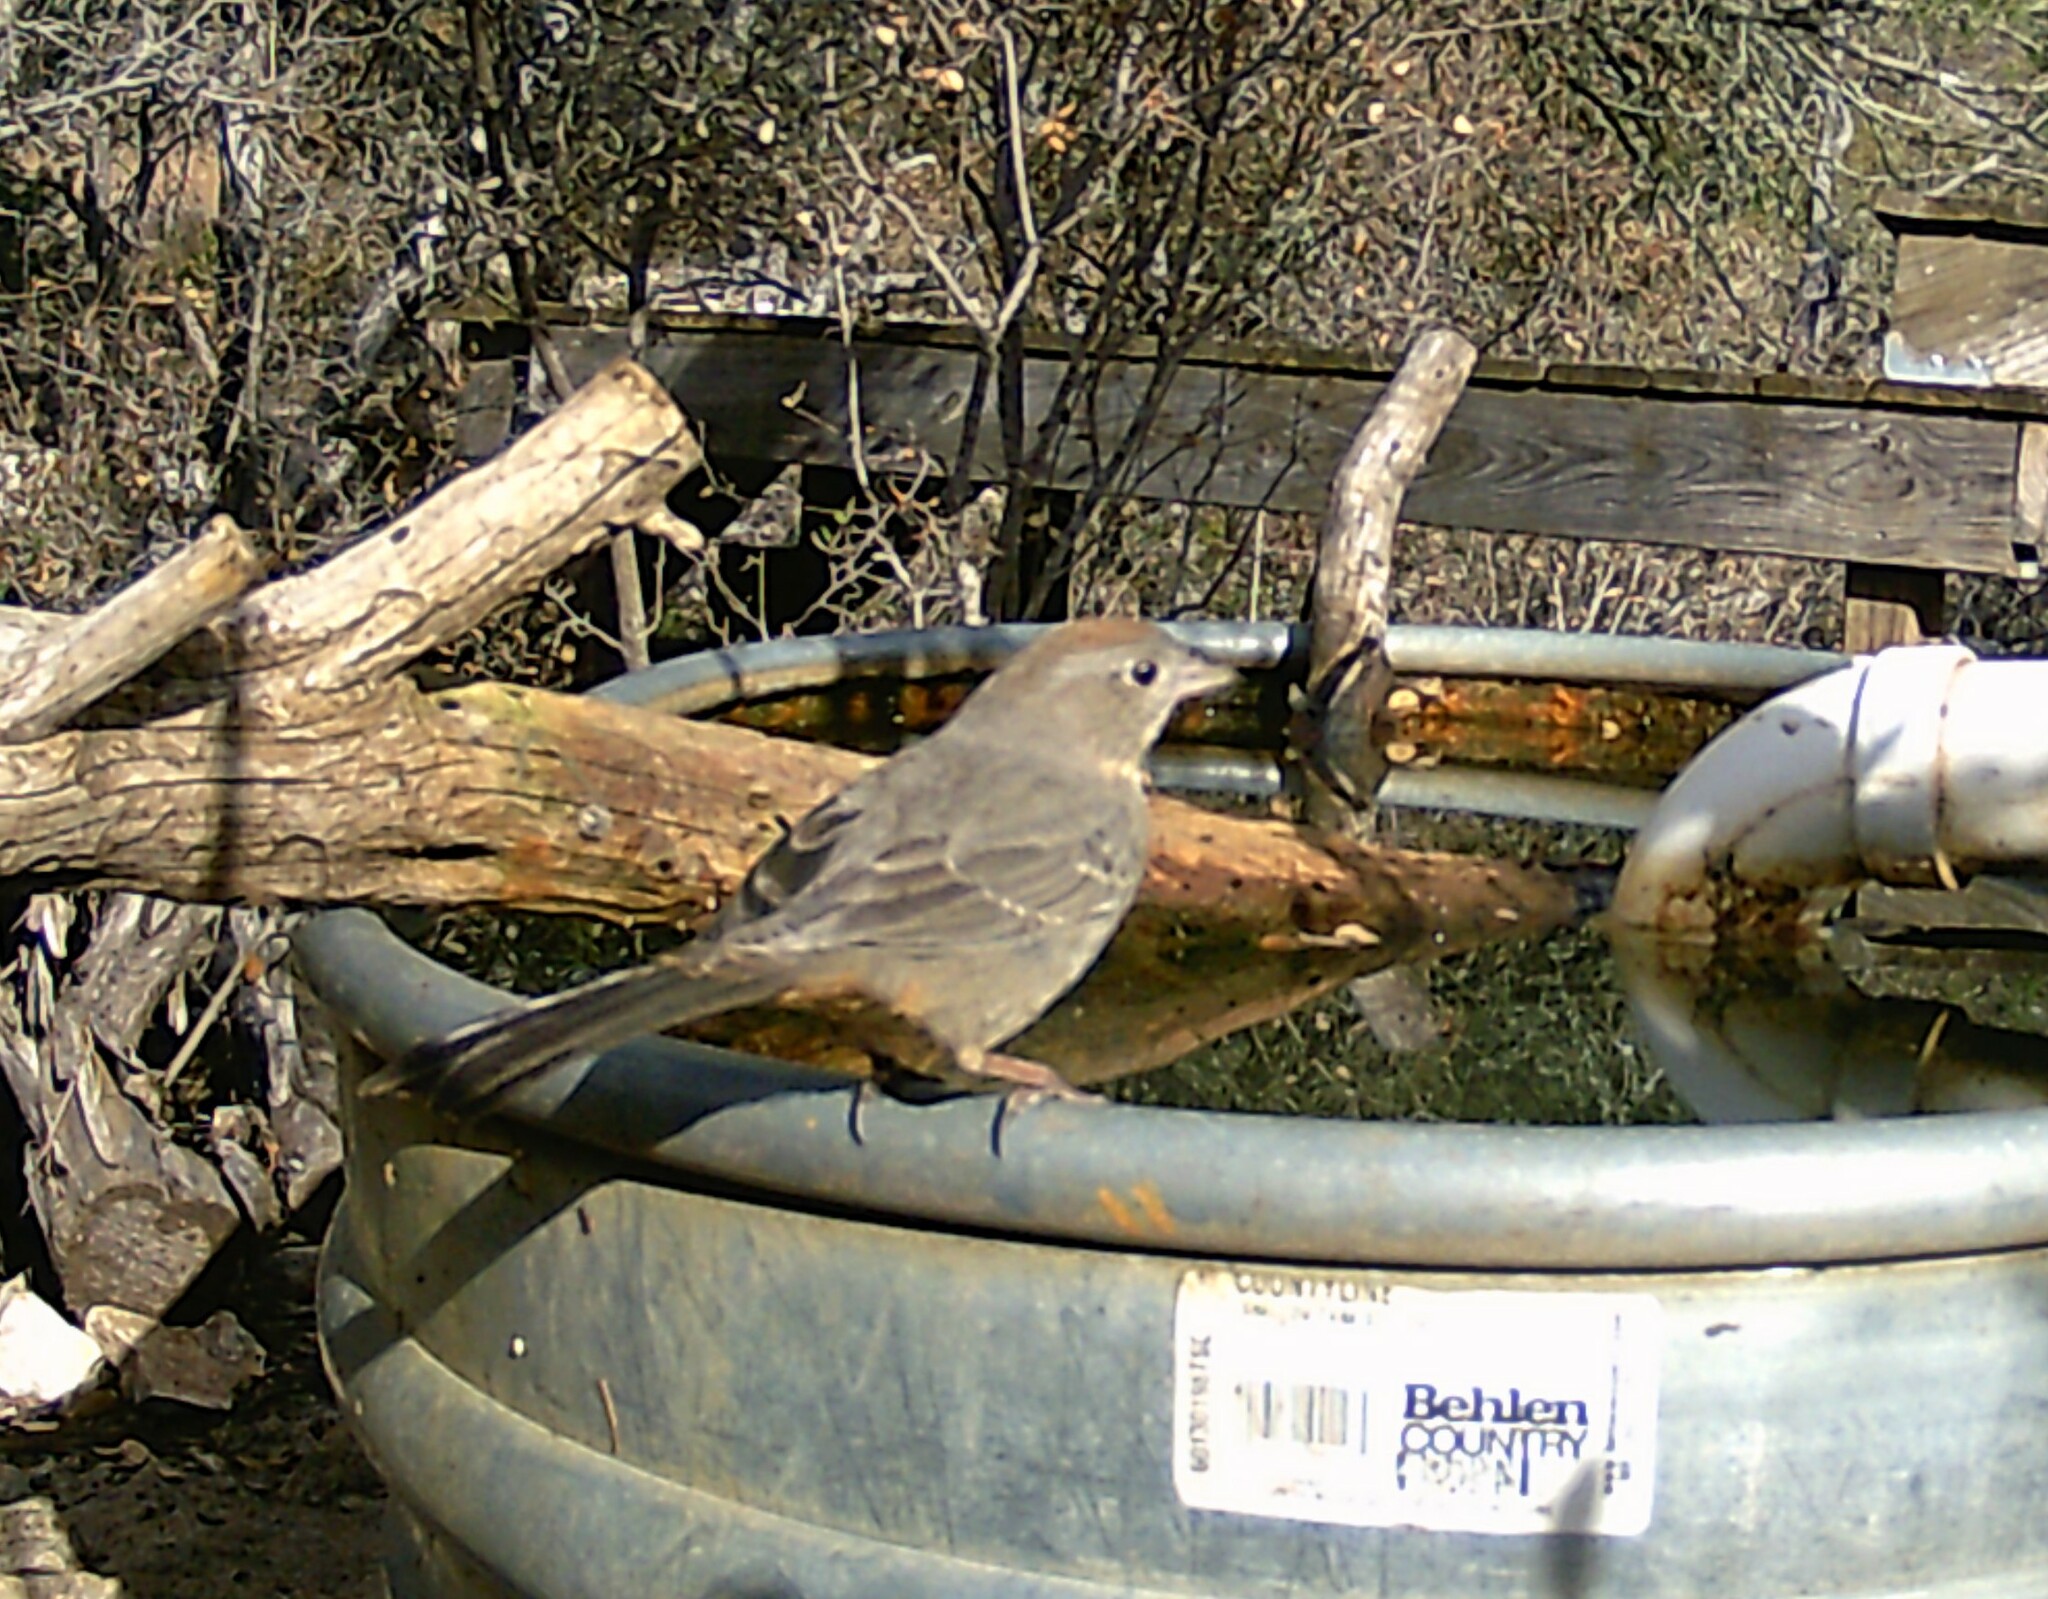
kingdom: Animalia
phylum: Chordata
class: Aves
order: Passeriformes
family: Passerellidae
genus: Melozone
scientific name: Melozone fusca
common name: Canyon towhee
